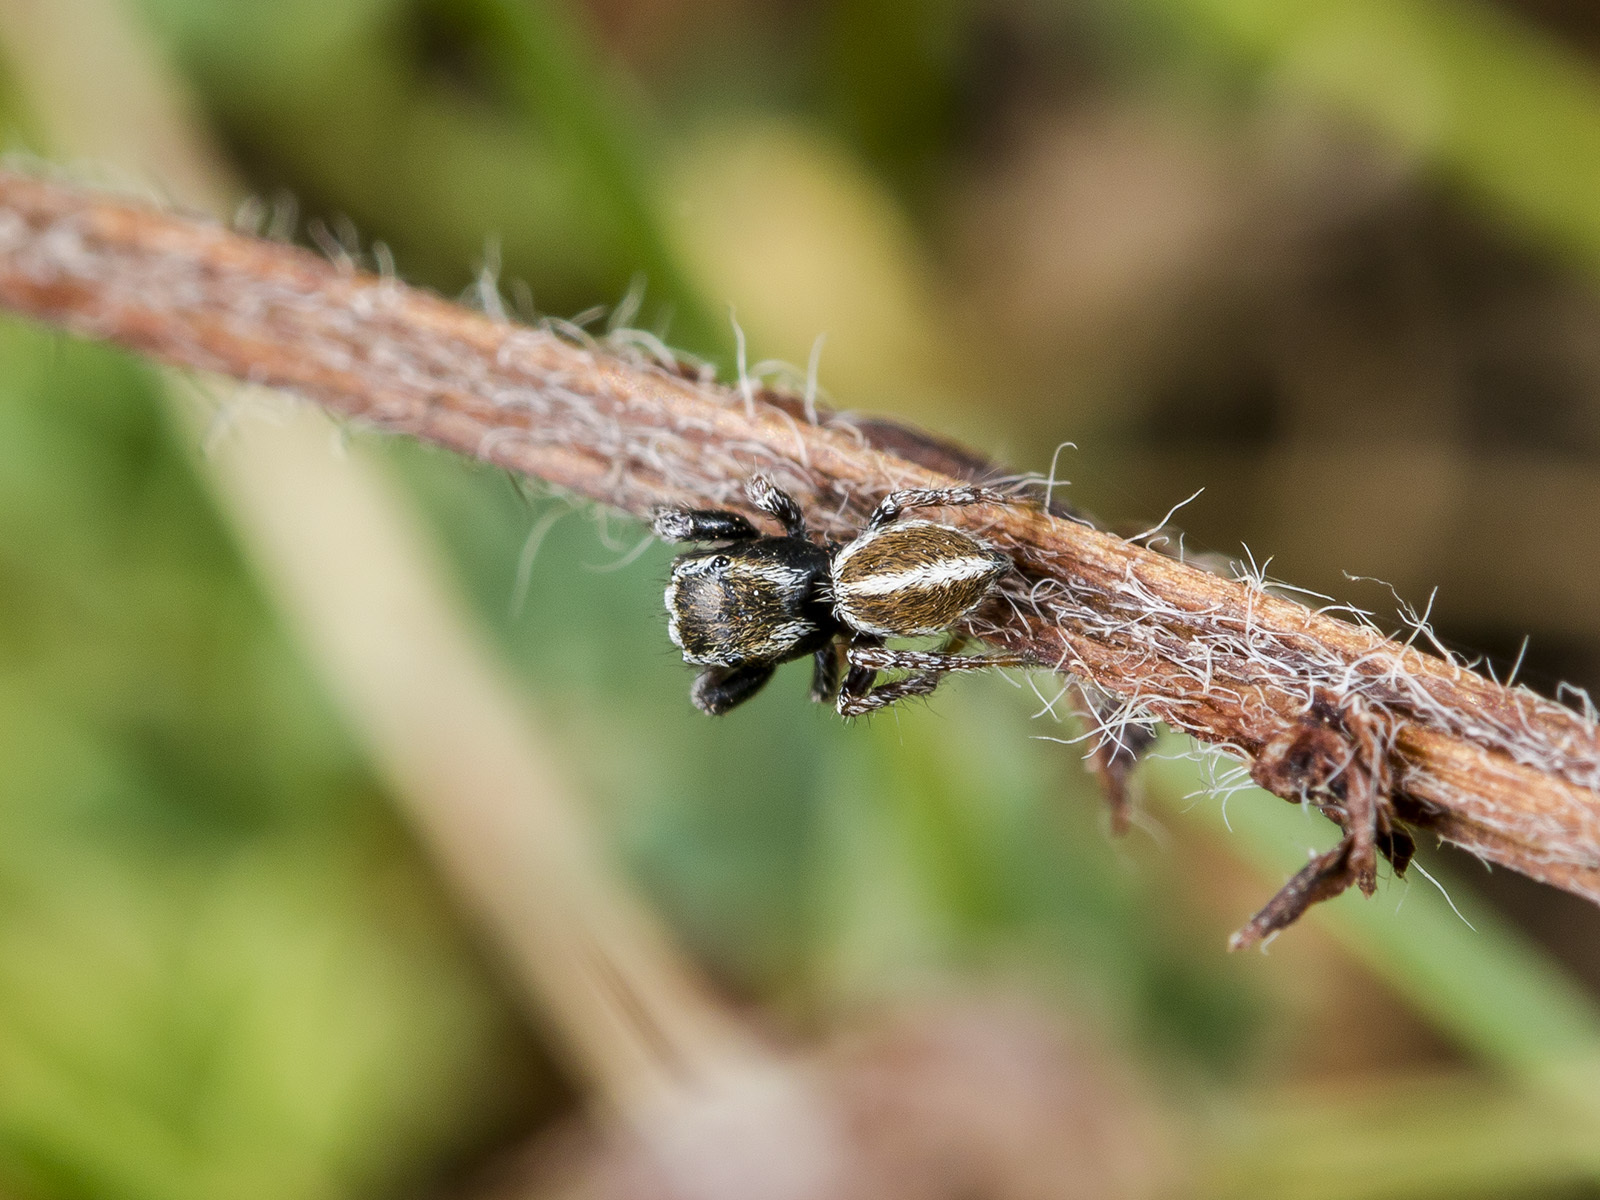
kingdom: Animalia
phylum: Arthropoda
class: Arachnida
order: Araneae
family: Salticidae
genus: Pellenes
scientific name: Pellenes epularis
